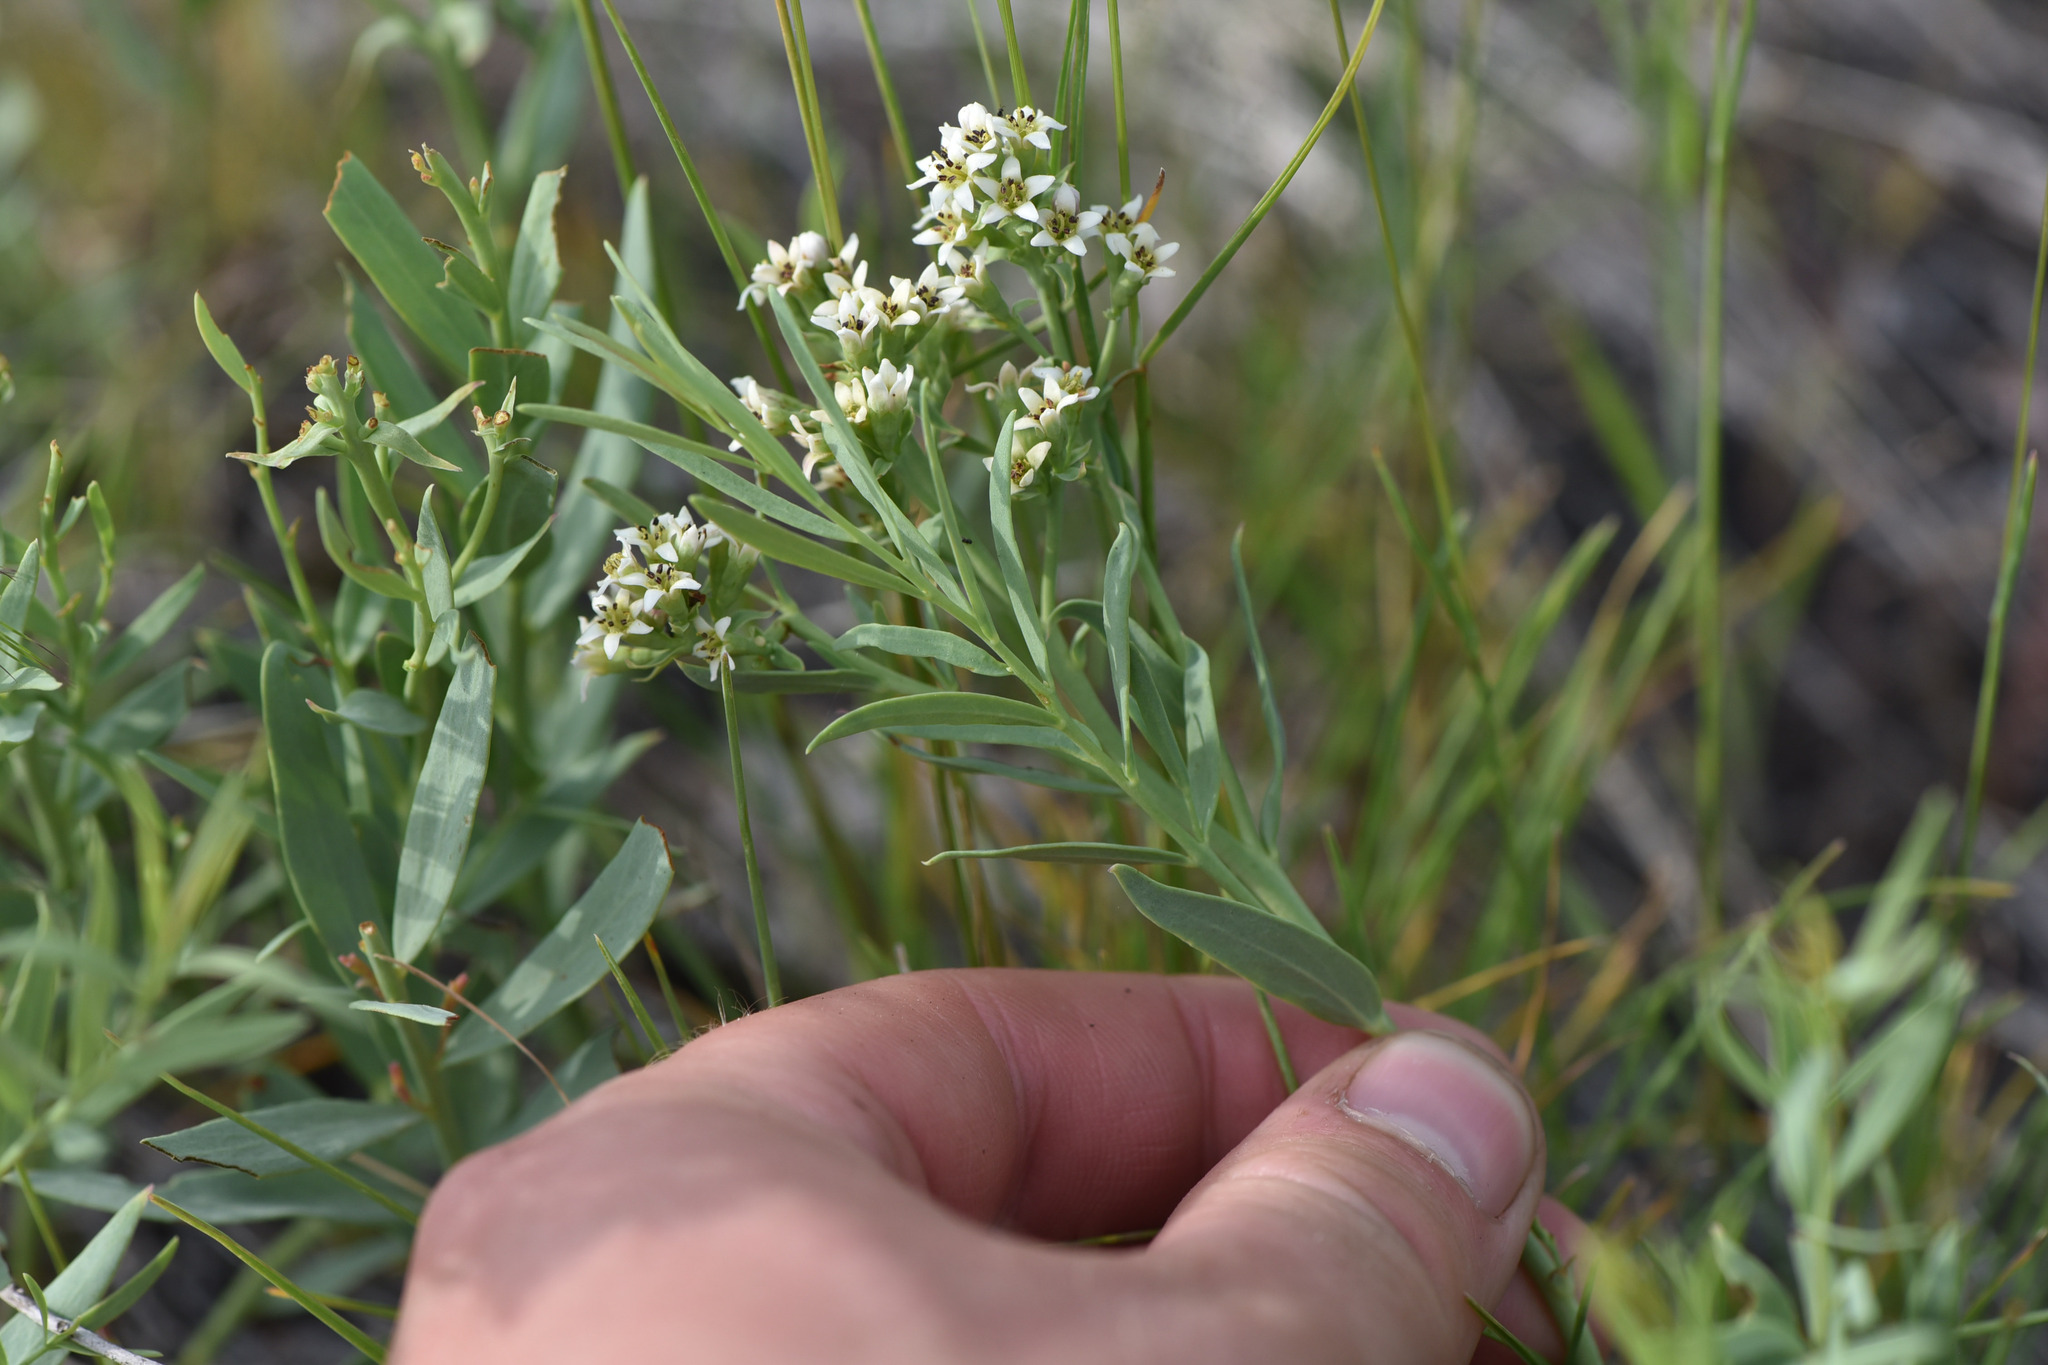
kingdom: Plantae
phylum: Tracheophyta
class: Magnoliopsida
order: Santalales
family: Comandraceae
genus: Comandra
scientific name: Comandra umbellata
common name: Bastard toadflax
